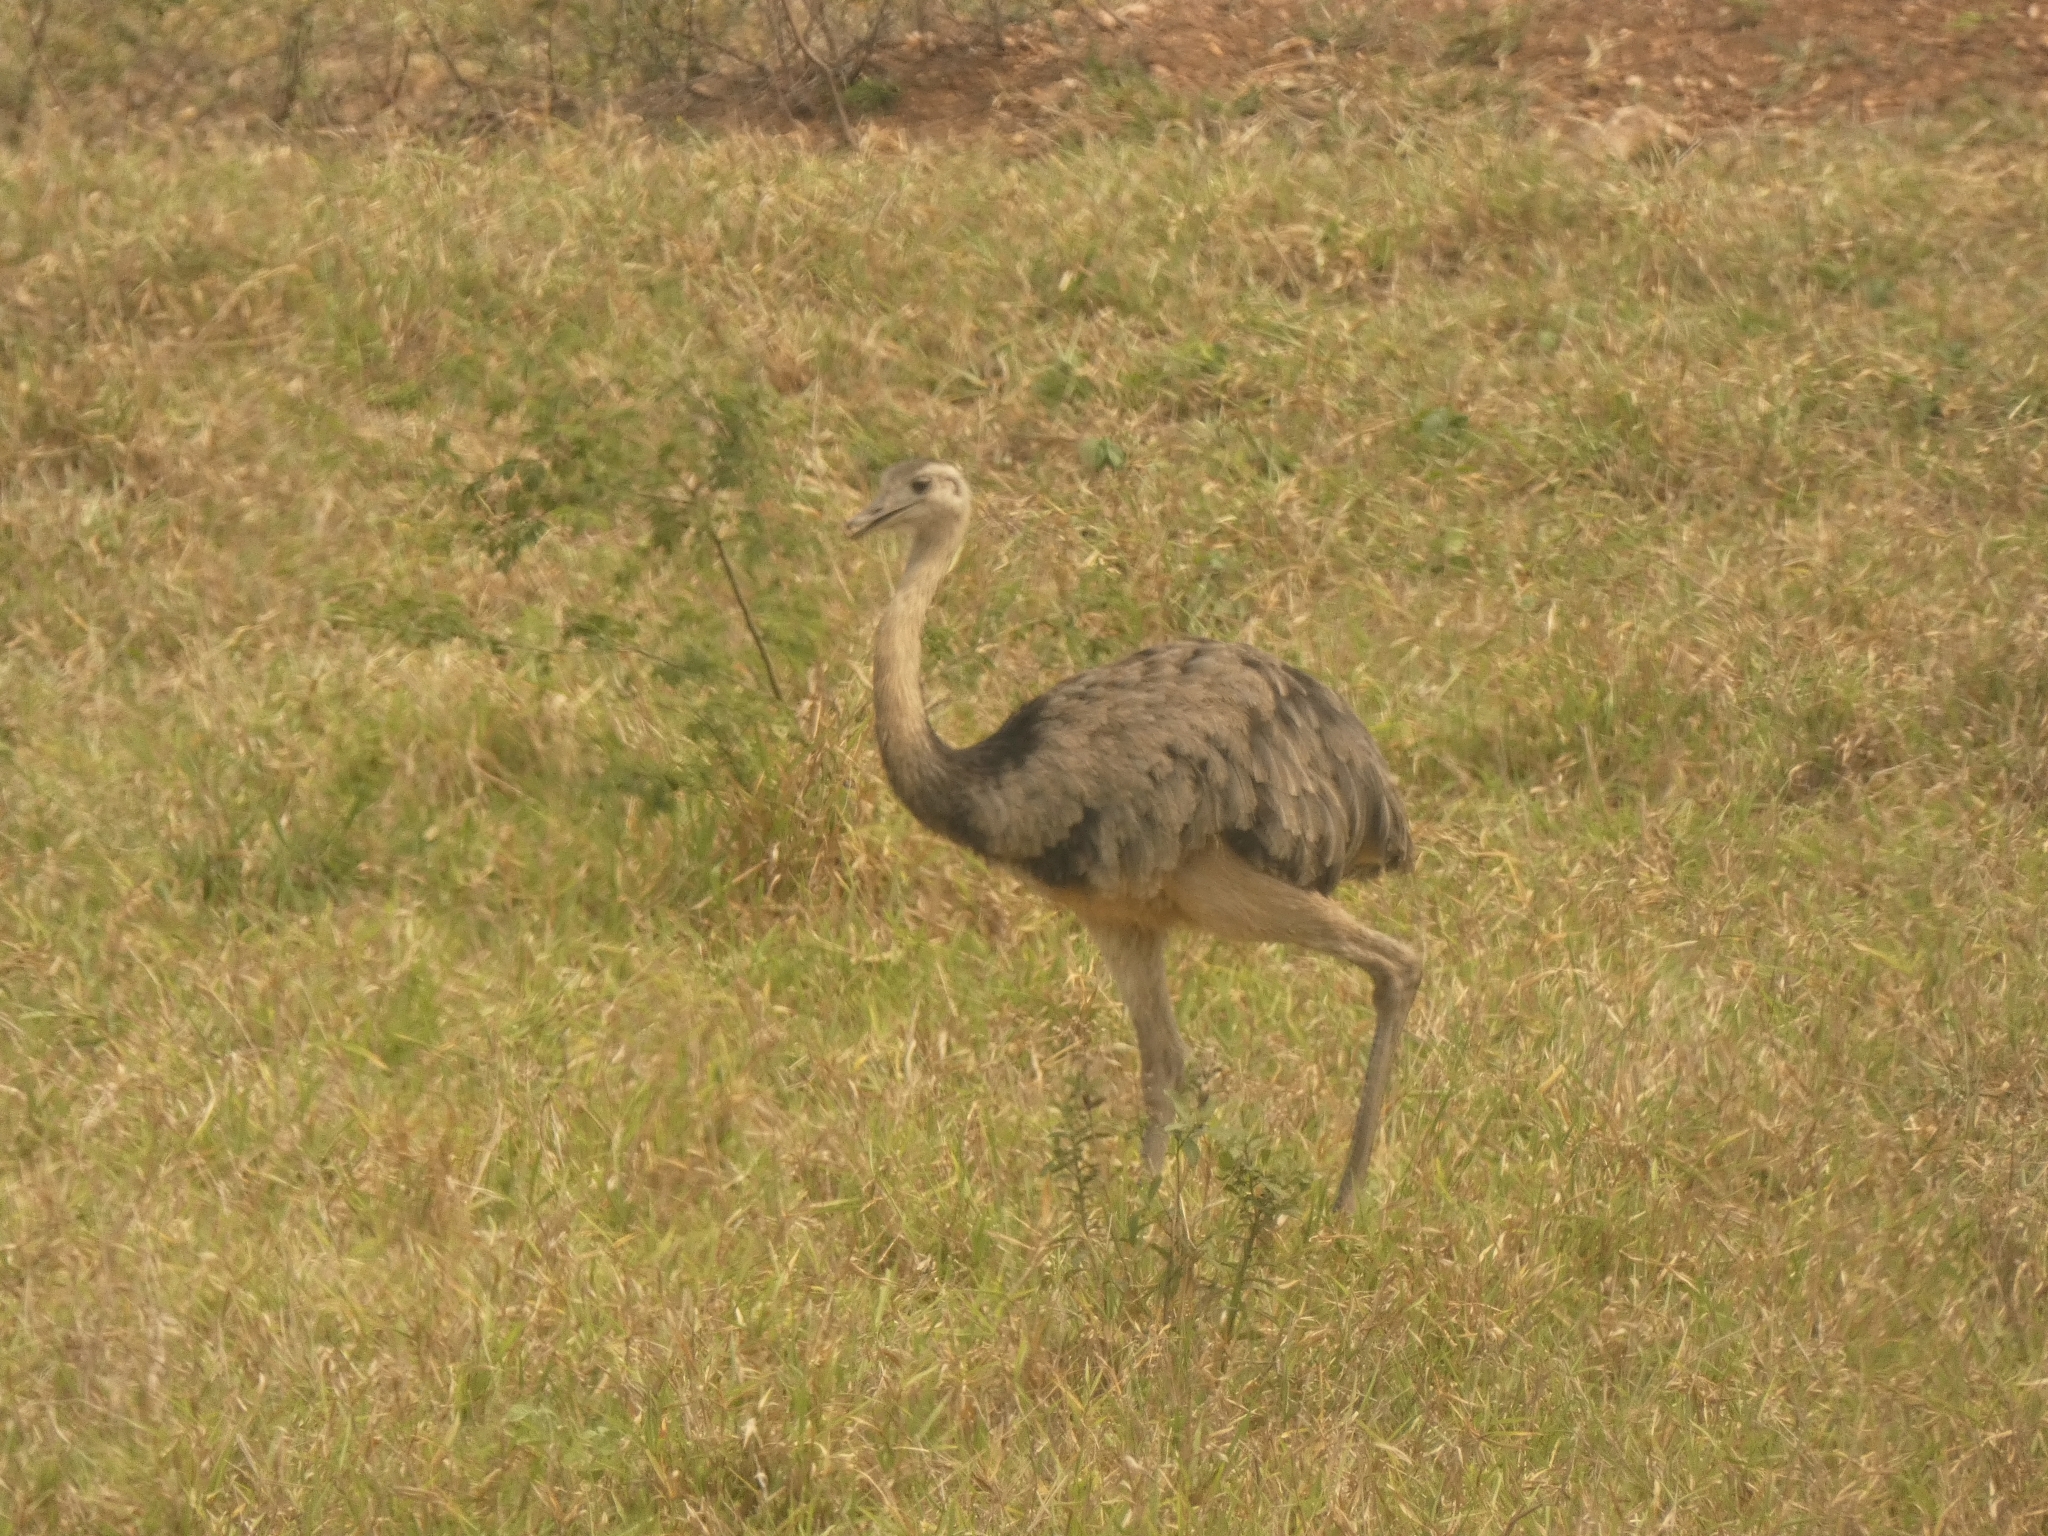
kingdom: Animalia
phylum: Chordata
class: Aves
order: Rheiformes
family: Rheidae
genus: Rhea
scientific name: Rhea americana
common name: Greater rhea
